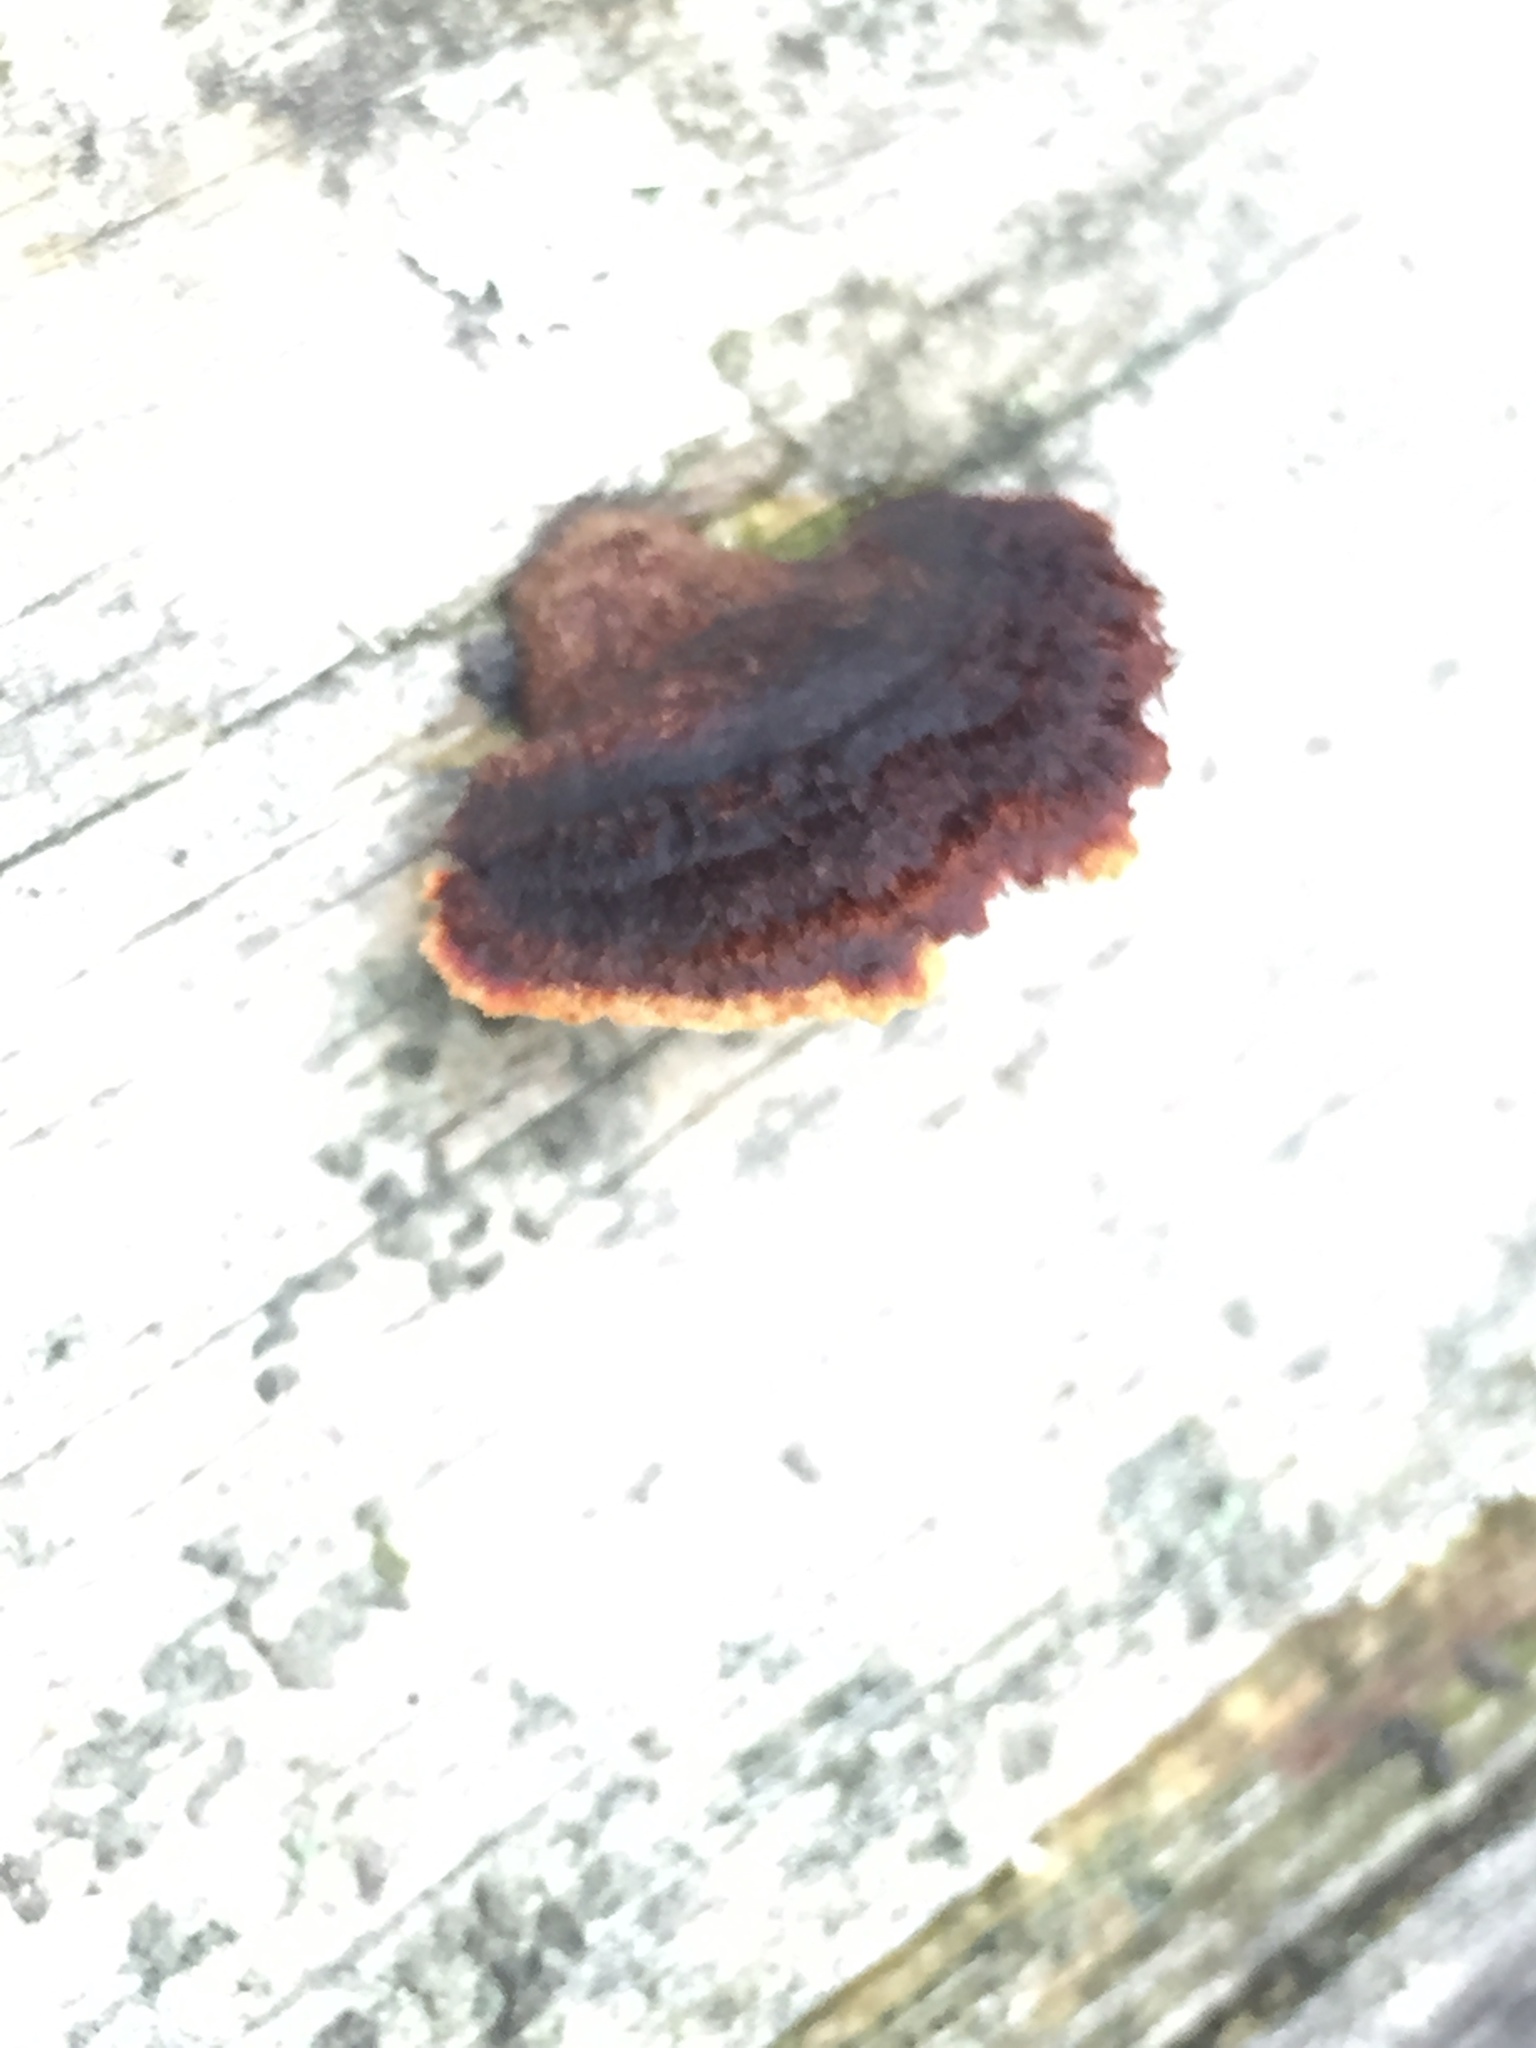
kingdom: Fungi
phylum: Basidiomycota
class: Agaricomycetes
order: Gloeophyllales
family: Gloeophyllaceae
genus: Gloeophyllum
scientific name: Gloeophyllum sepiarium
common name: Conifer mazegill
